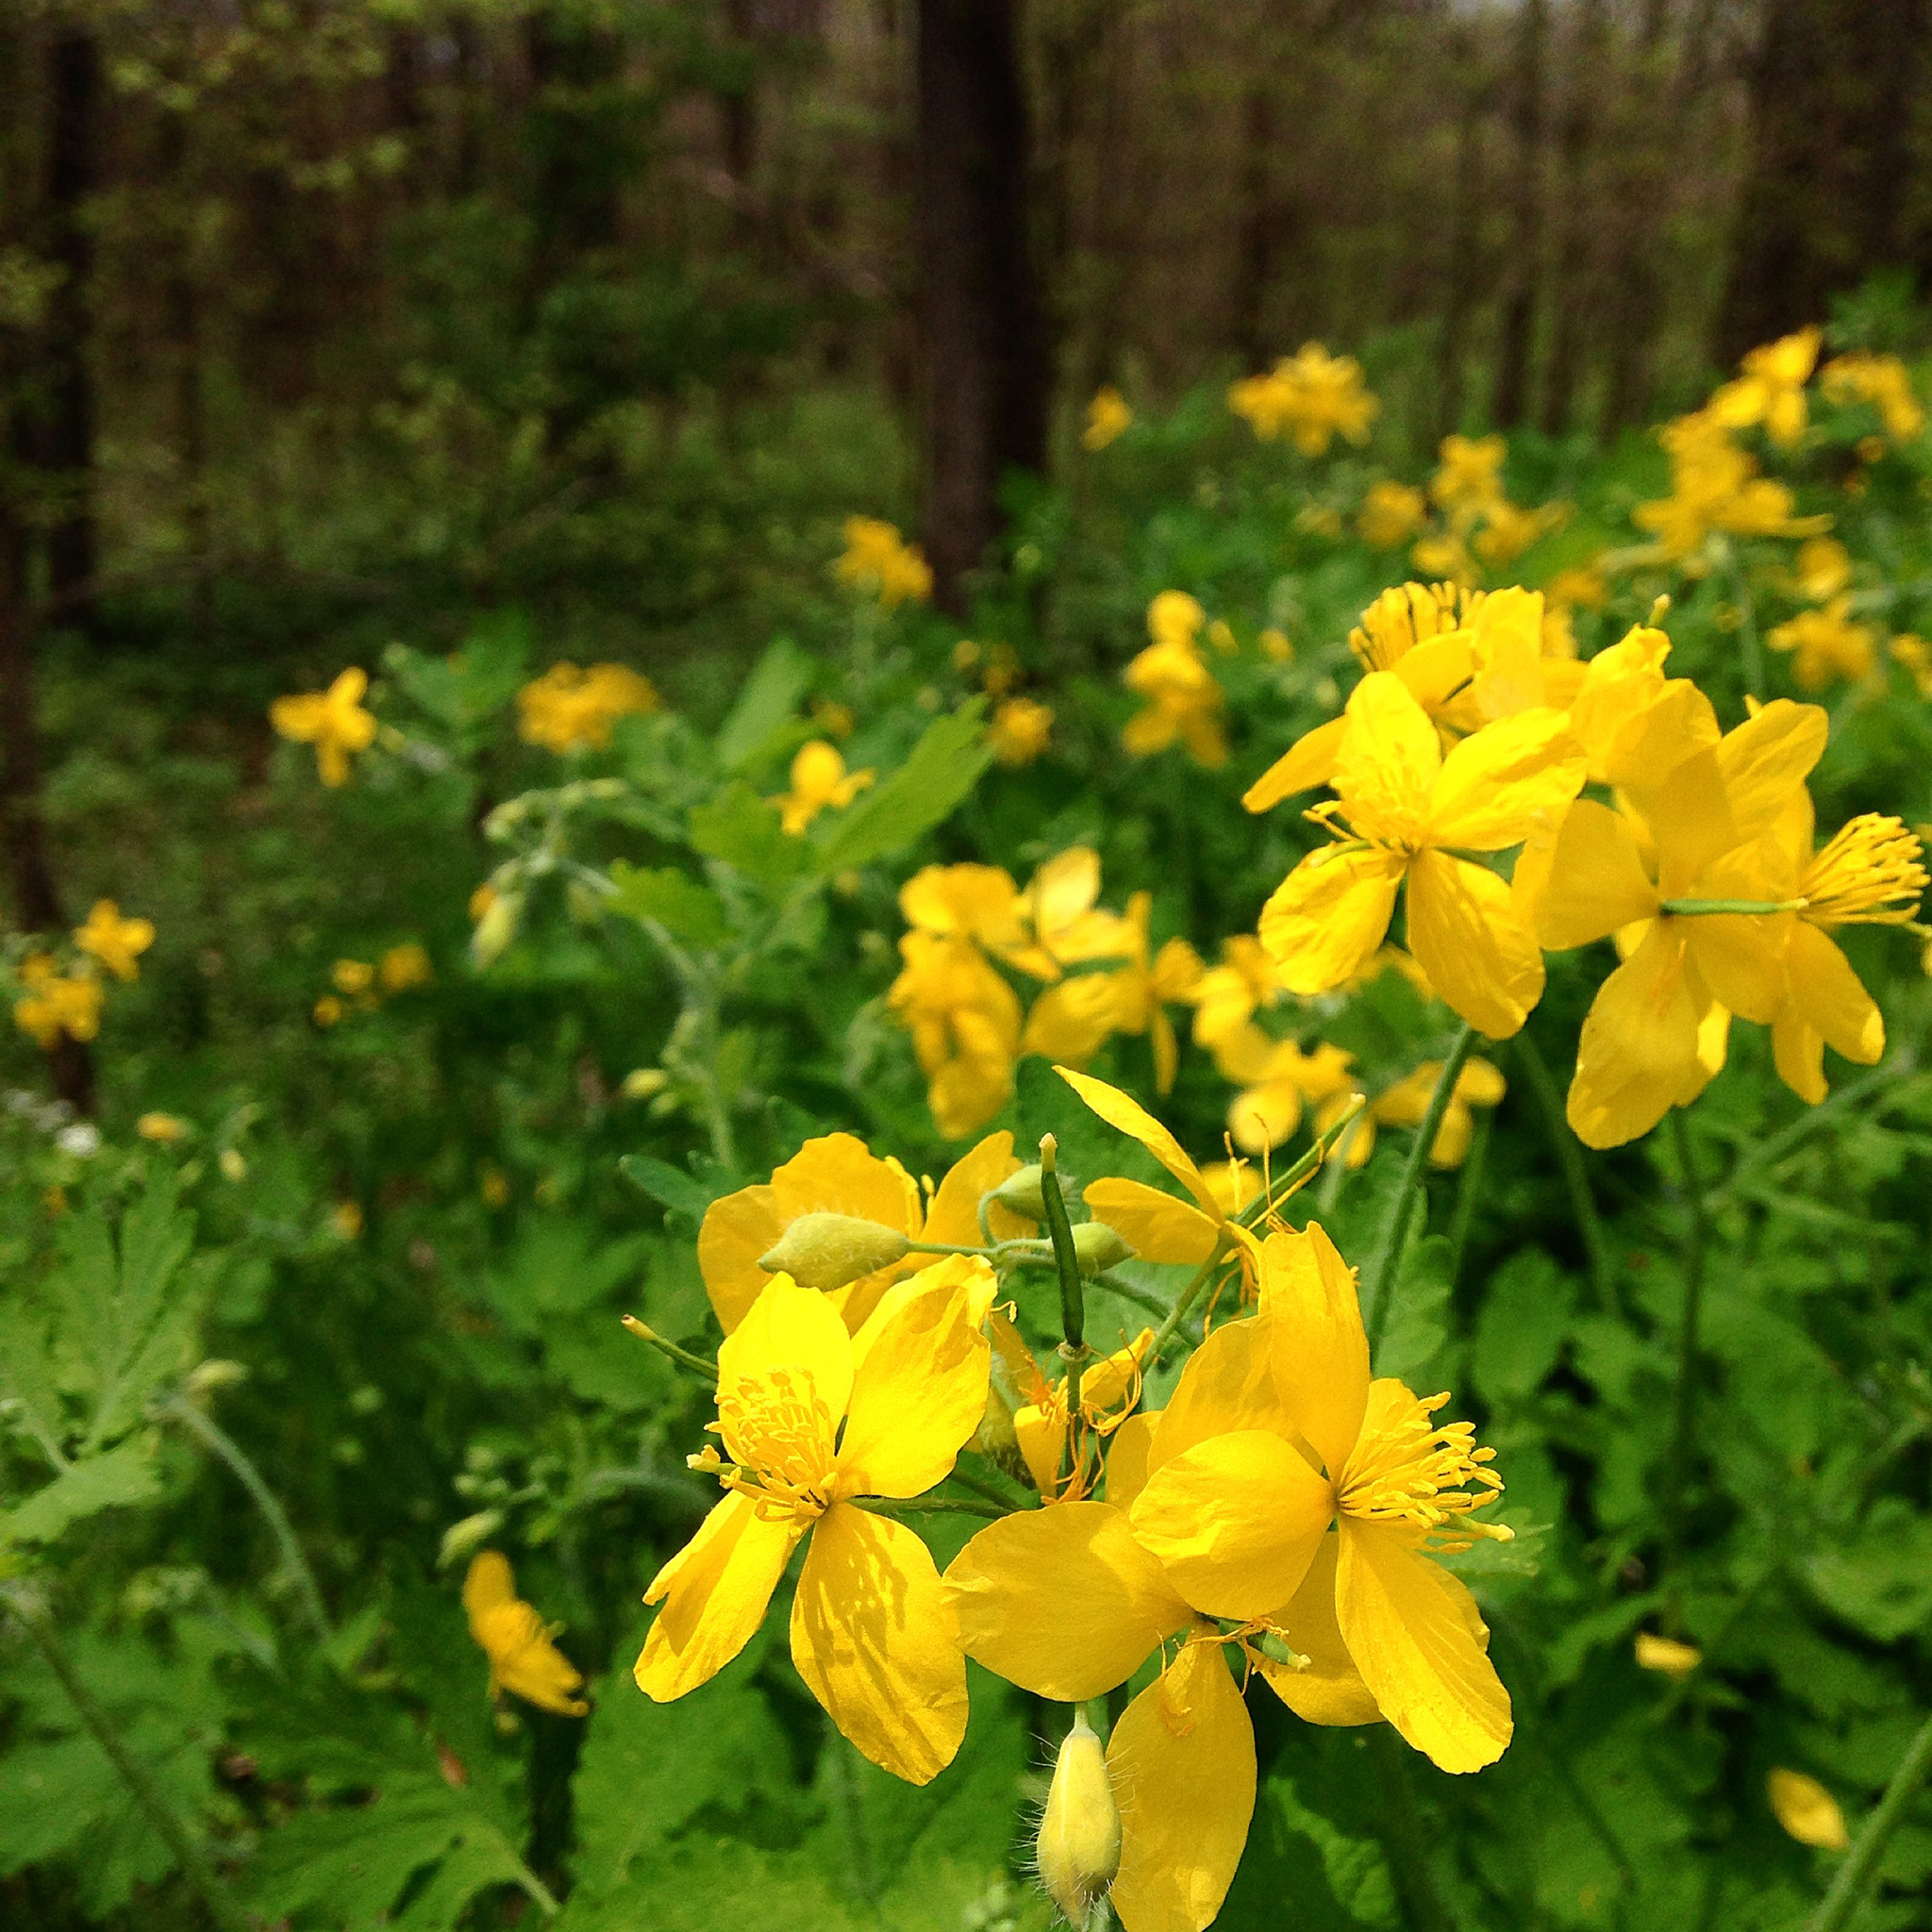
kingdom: Plantae
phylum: Tracheophyta
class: Magnoliopsida
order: Ranunculales
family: Papaveraceae
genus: Chelidonium
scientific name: Chelidonium majus
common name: Greater celandine
